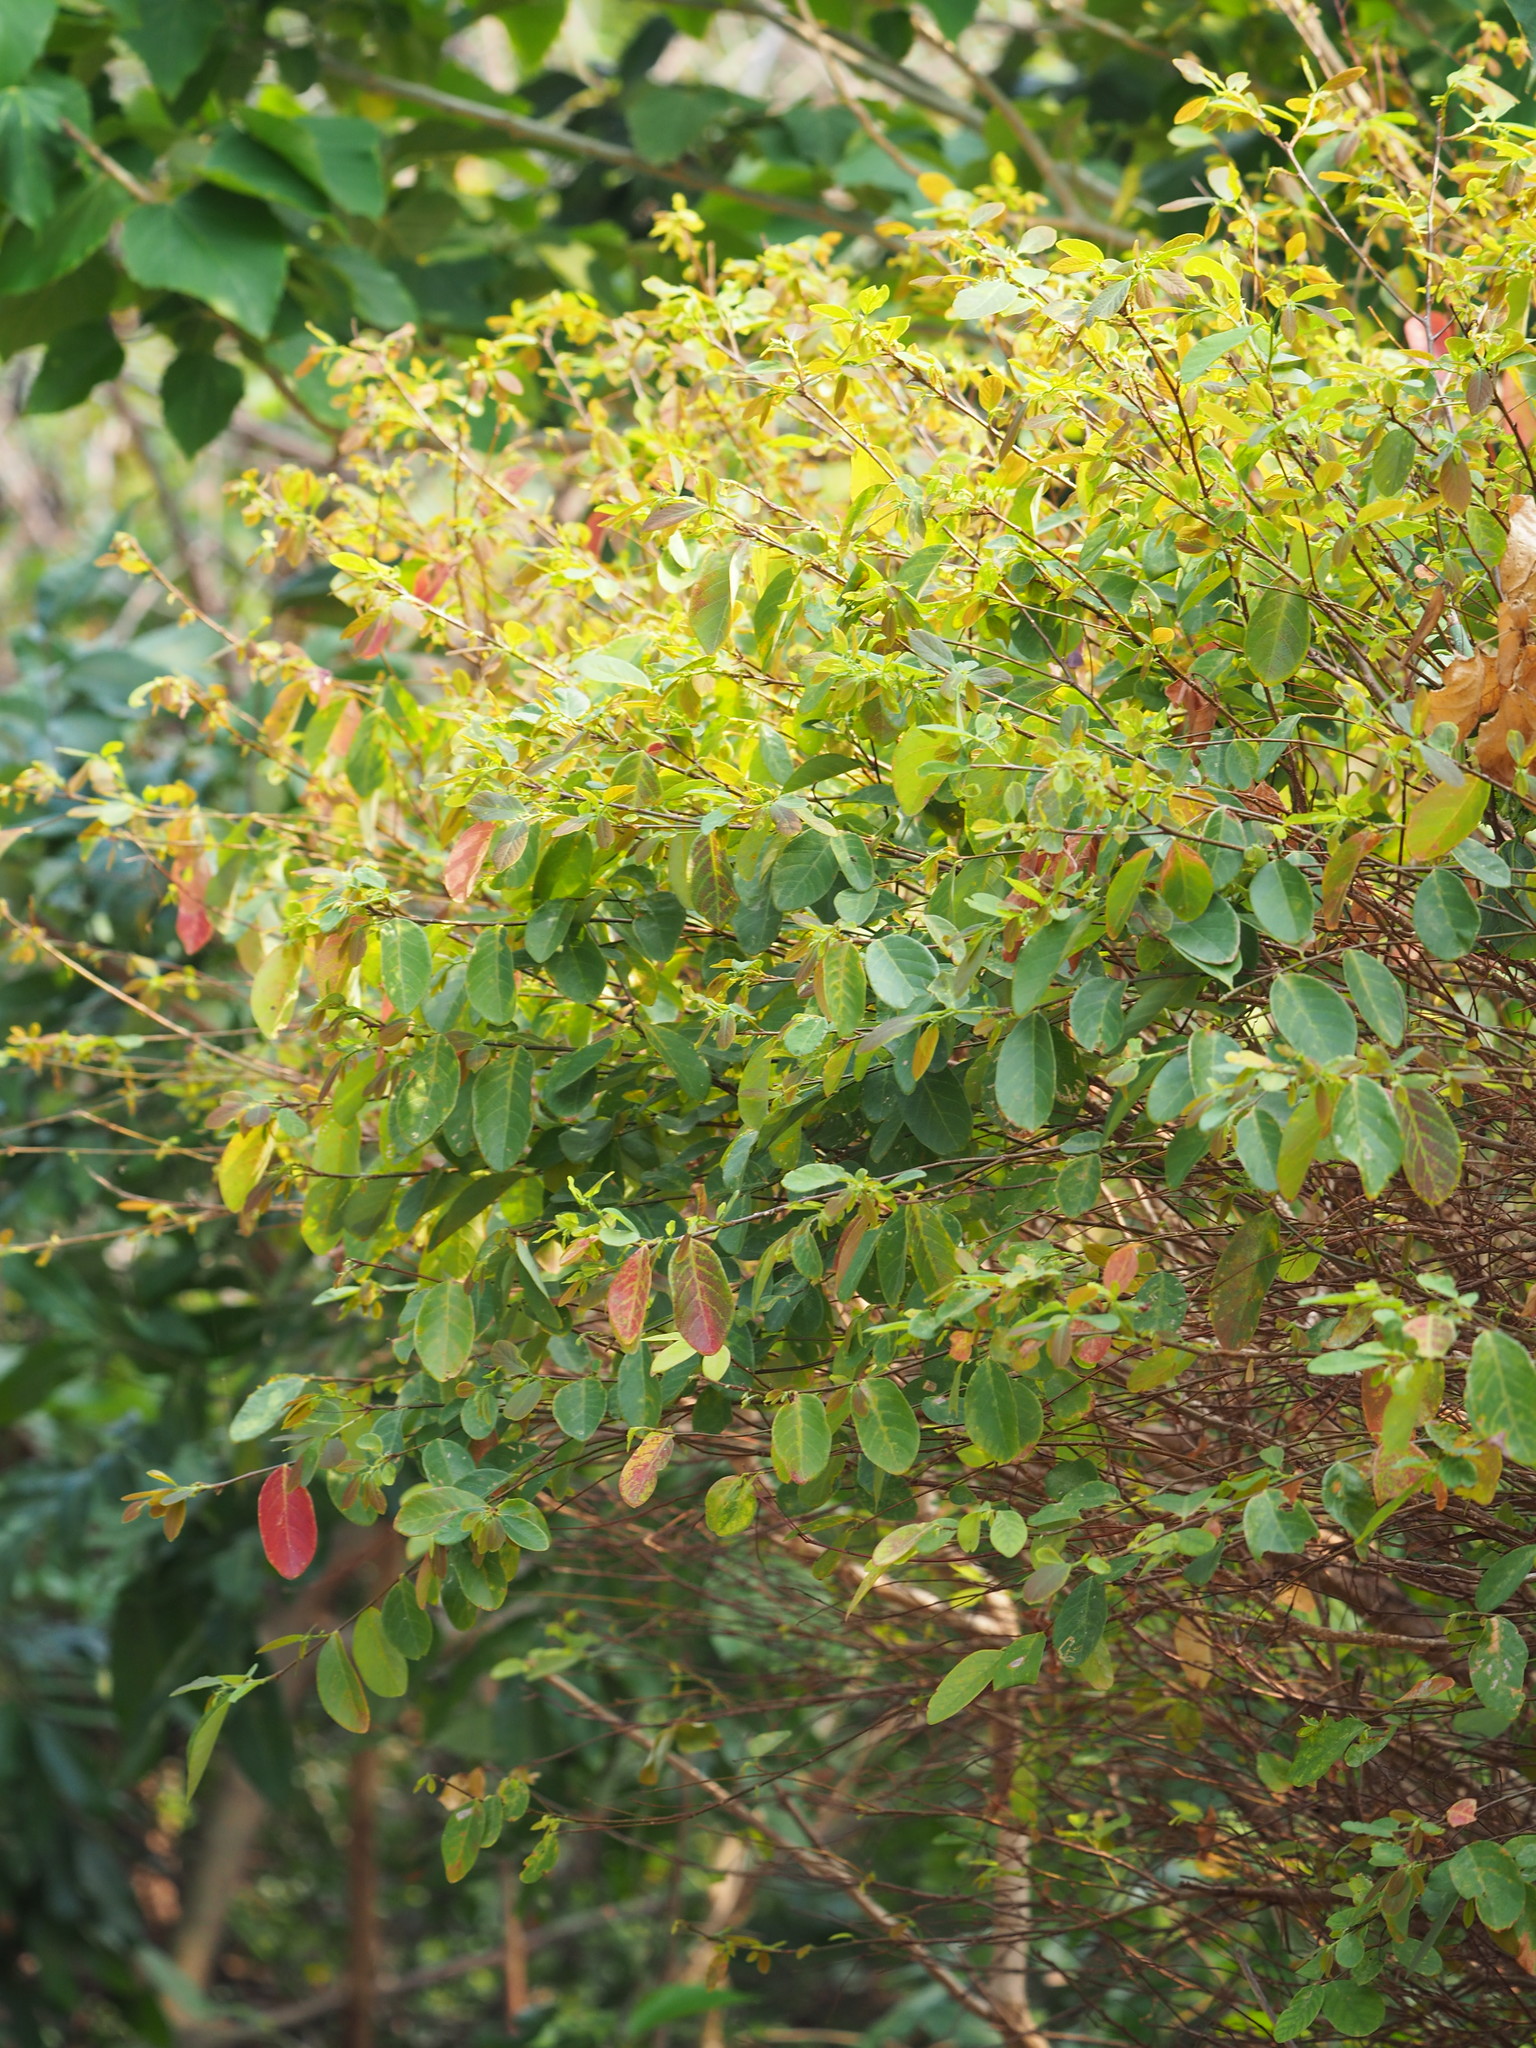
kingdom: Plantae
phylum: Tracheophyta
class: Magnoliopsida
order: Malpighiales
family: Phyllanthaceae
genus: Bridelia
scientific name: Bridelia tomentosa
